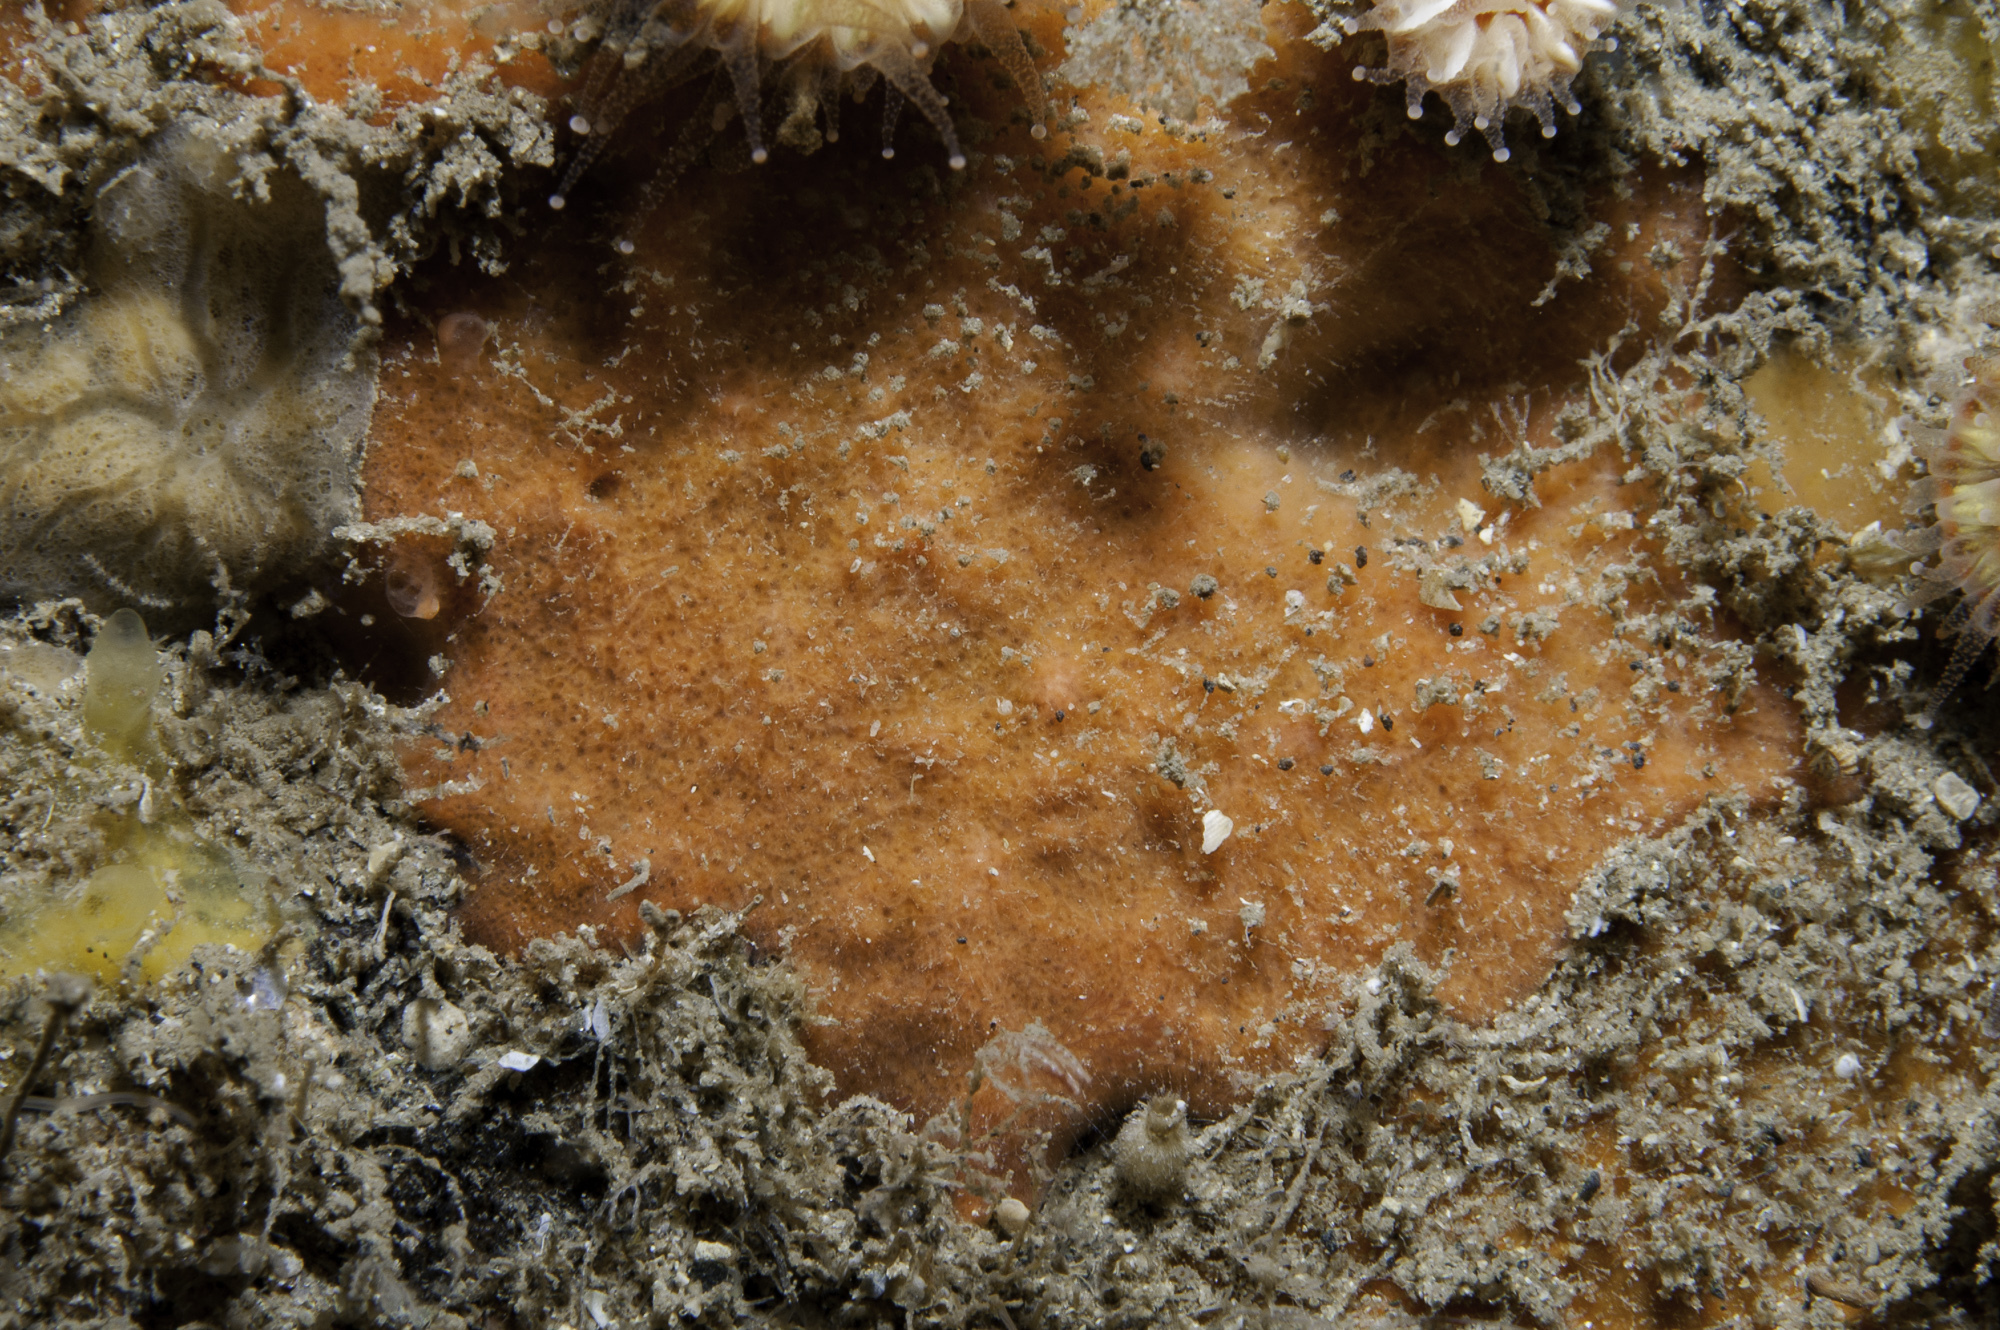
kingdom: Animalia
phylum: Porifera
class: Demospongiae
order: Axinellida
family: Raspailiidae
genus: Hymeraphia
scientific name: Hymeraphia breeni
